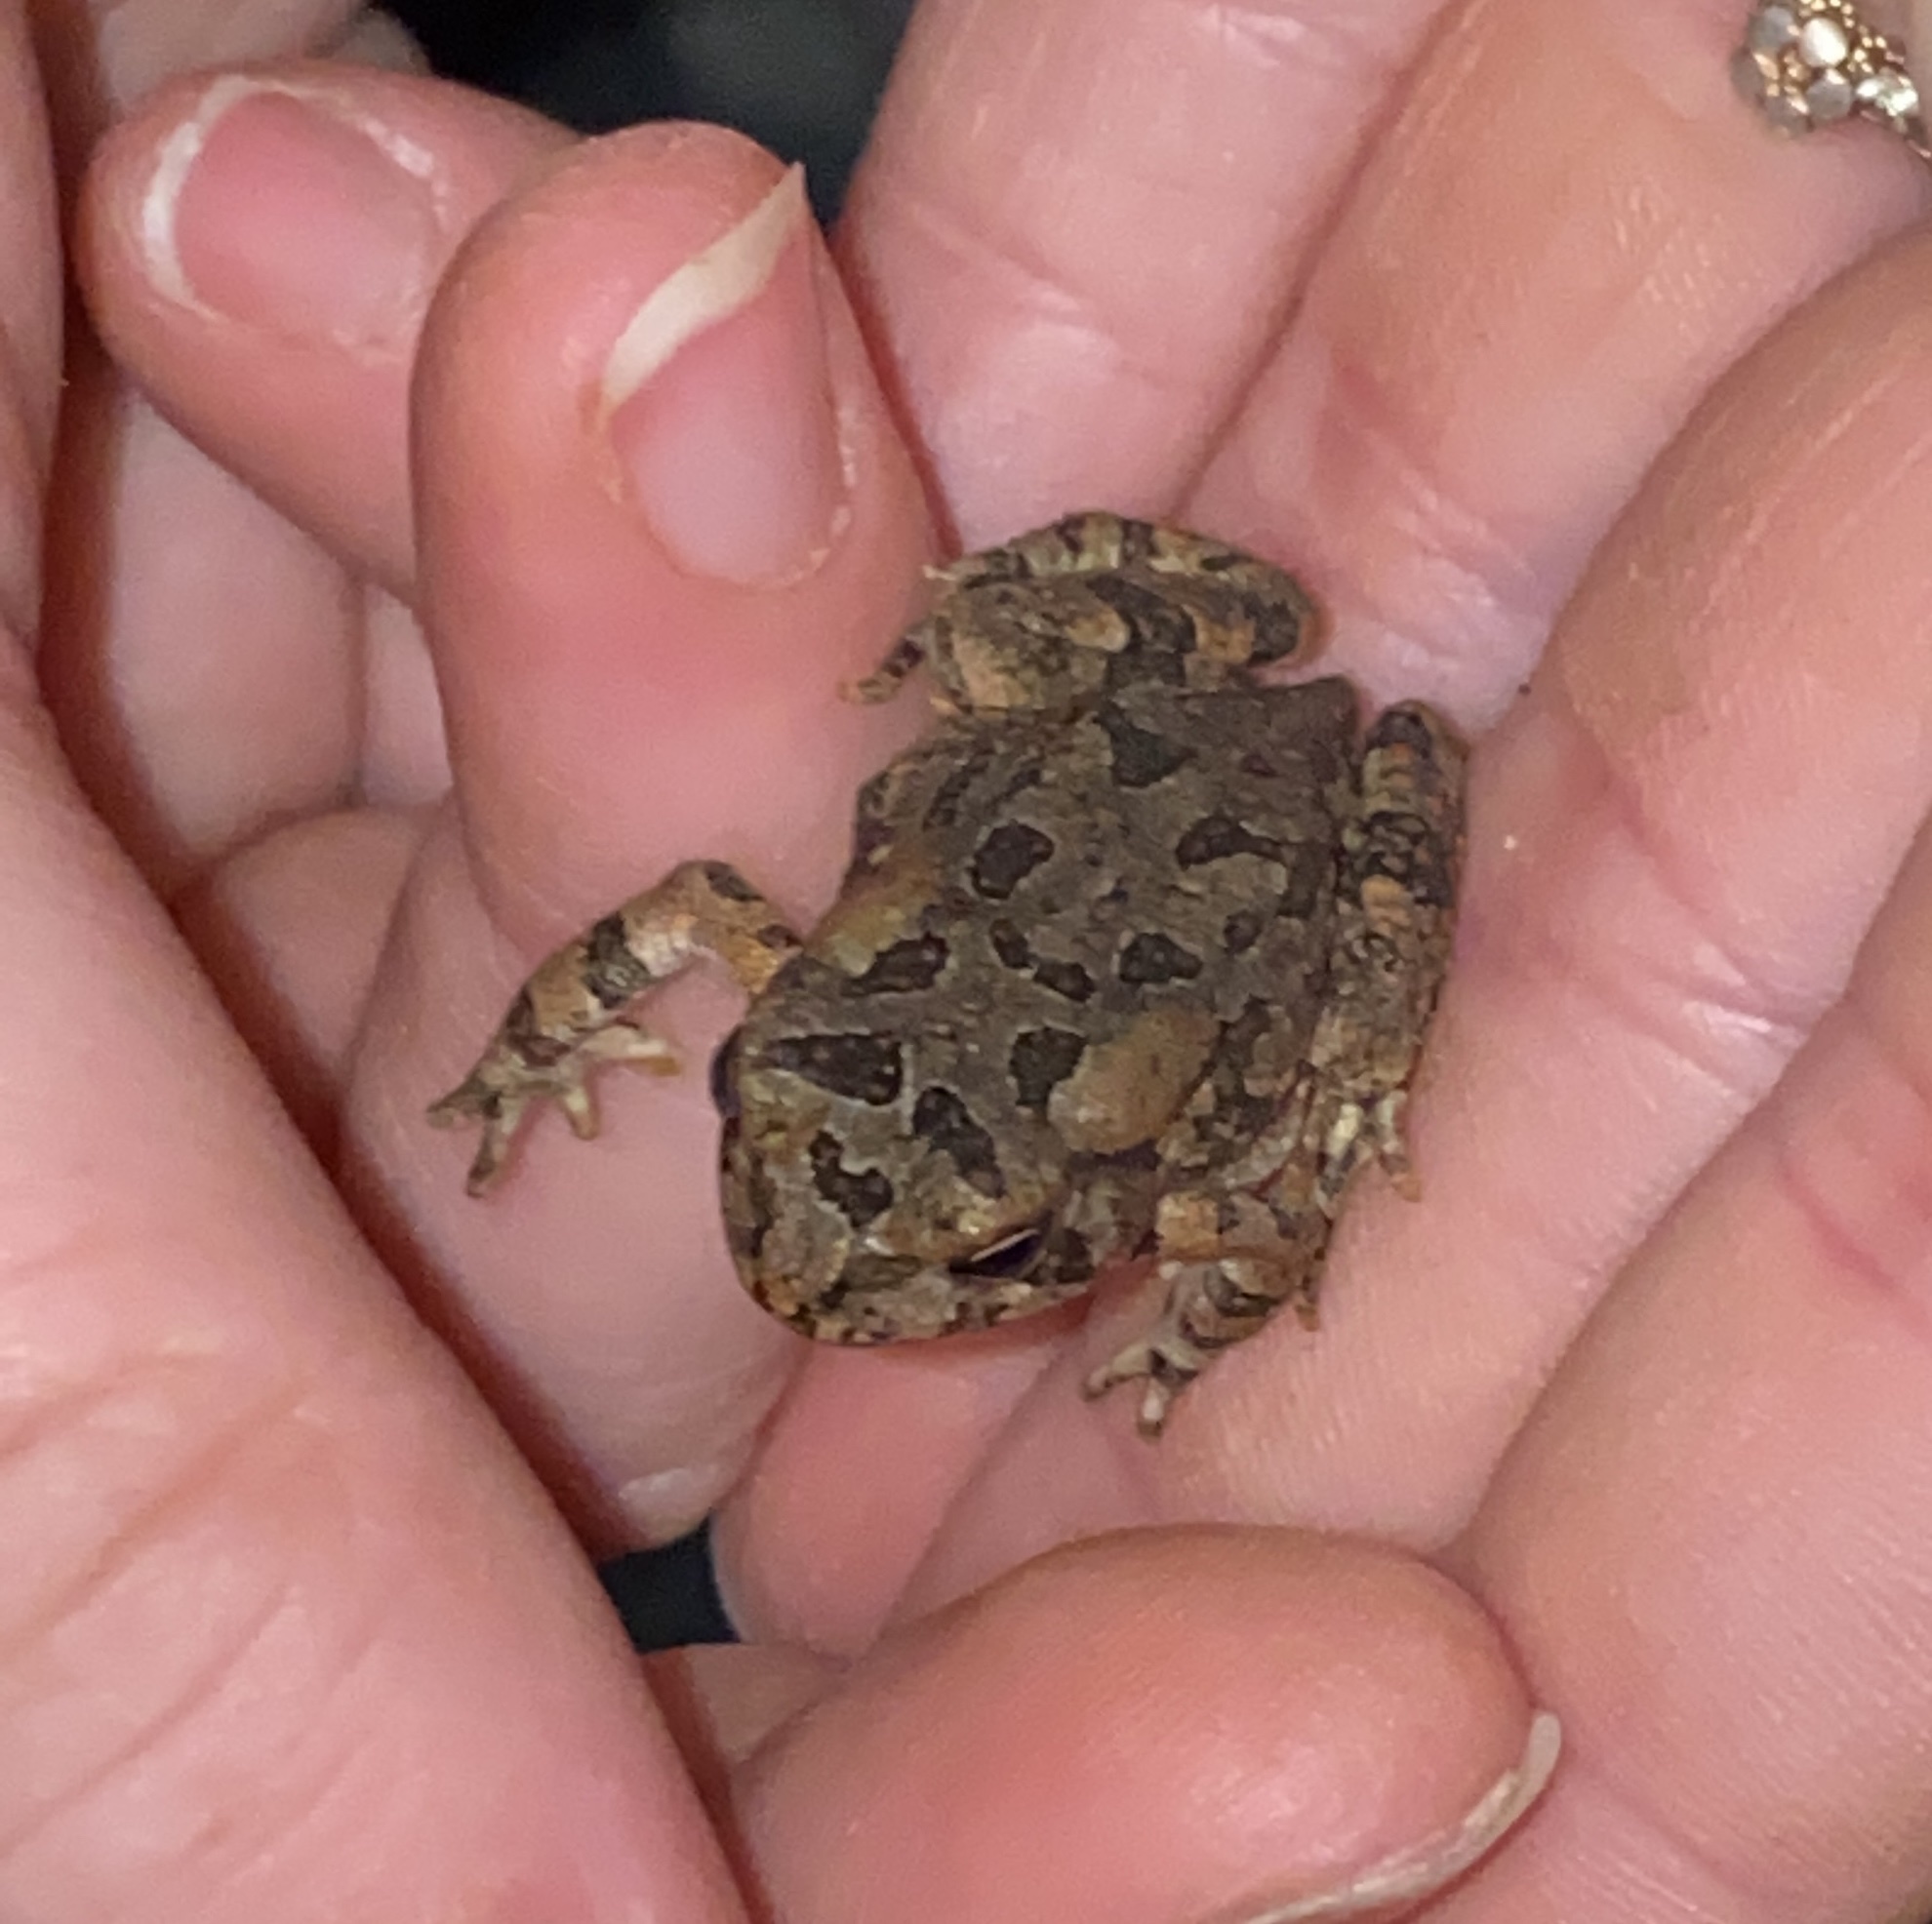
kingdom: Animalia
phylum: Chordata
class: Amphibia
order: Anura
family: Bufonidae
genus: Anaxyrus
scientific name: Anaxyrus fowleri
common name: Fowler's toad
